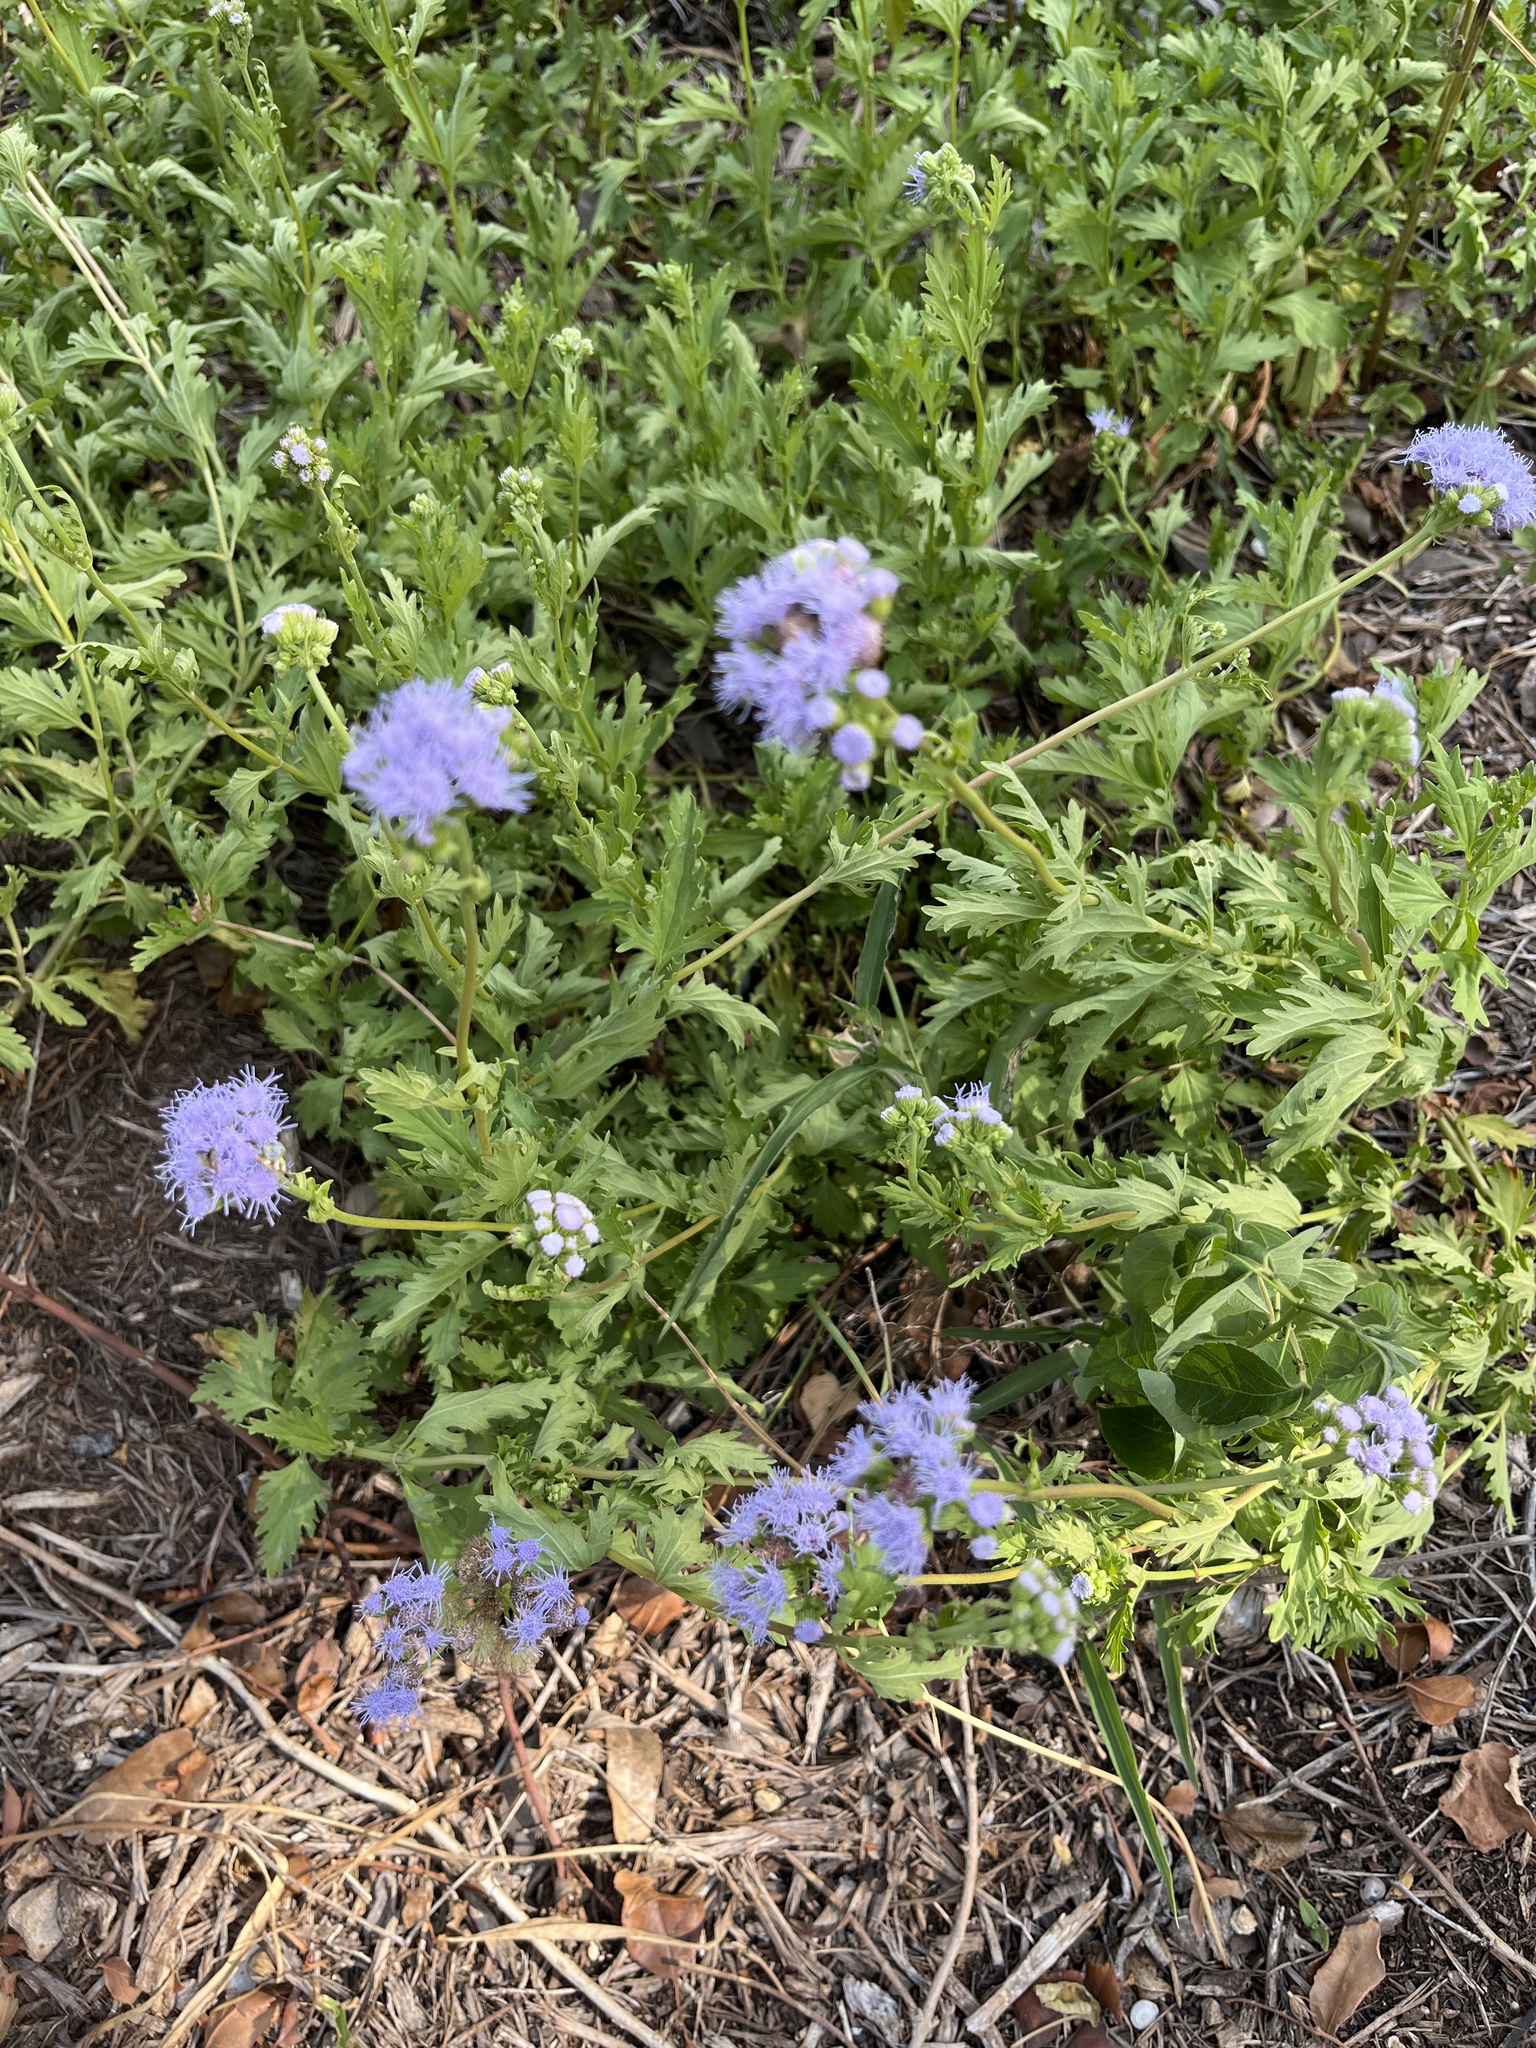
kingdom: Plantae
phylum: Tracheophyta
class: Magnoliopsida
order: Asterales
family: Asteraceae
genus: Conoclinium
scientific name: Conoclinium dissectum
